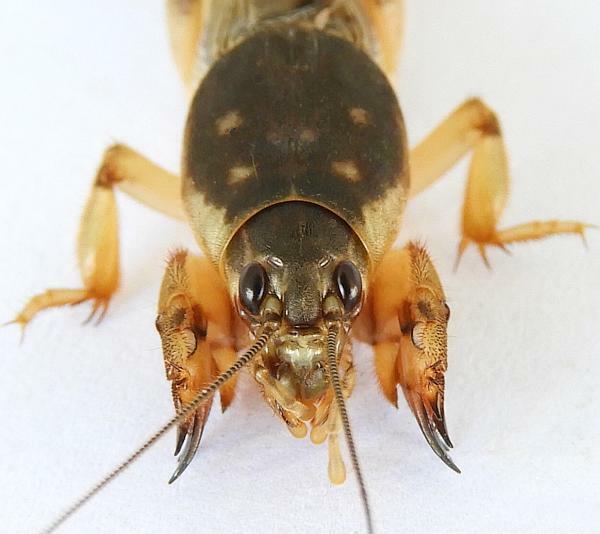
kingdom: Animalia
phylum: Arthropoda
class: Insecta
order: Orthoptera
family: Gryllotalpidae
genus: Neoscapteriscus
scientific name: Neoscapteriscus borellii
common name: Southern mole cricket
